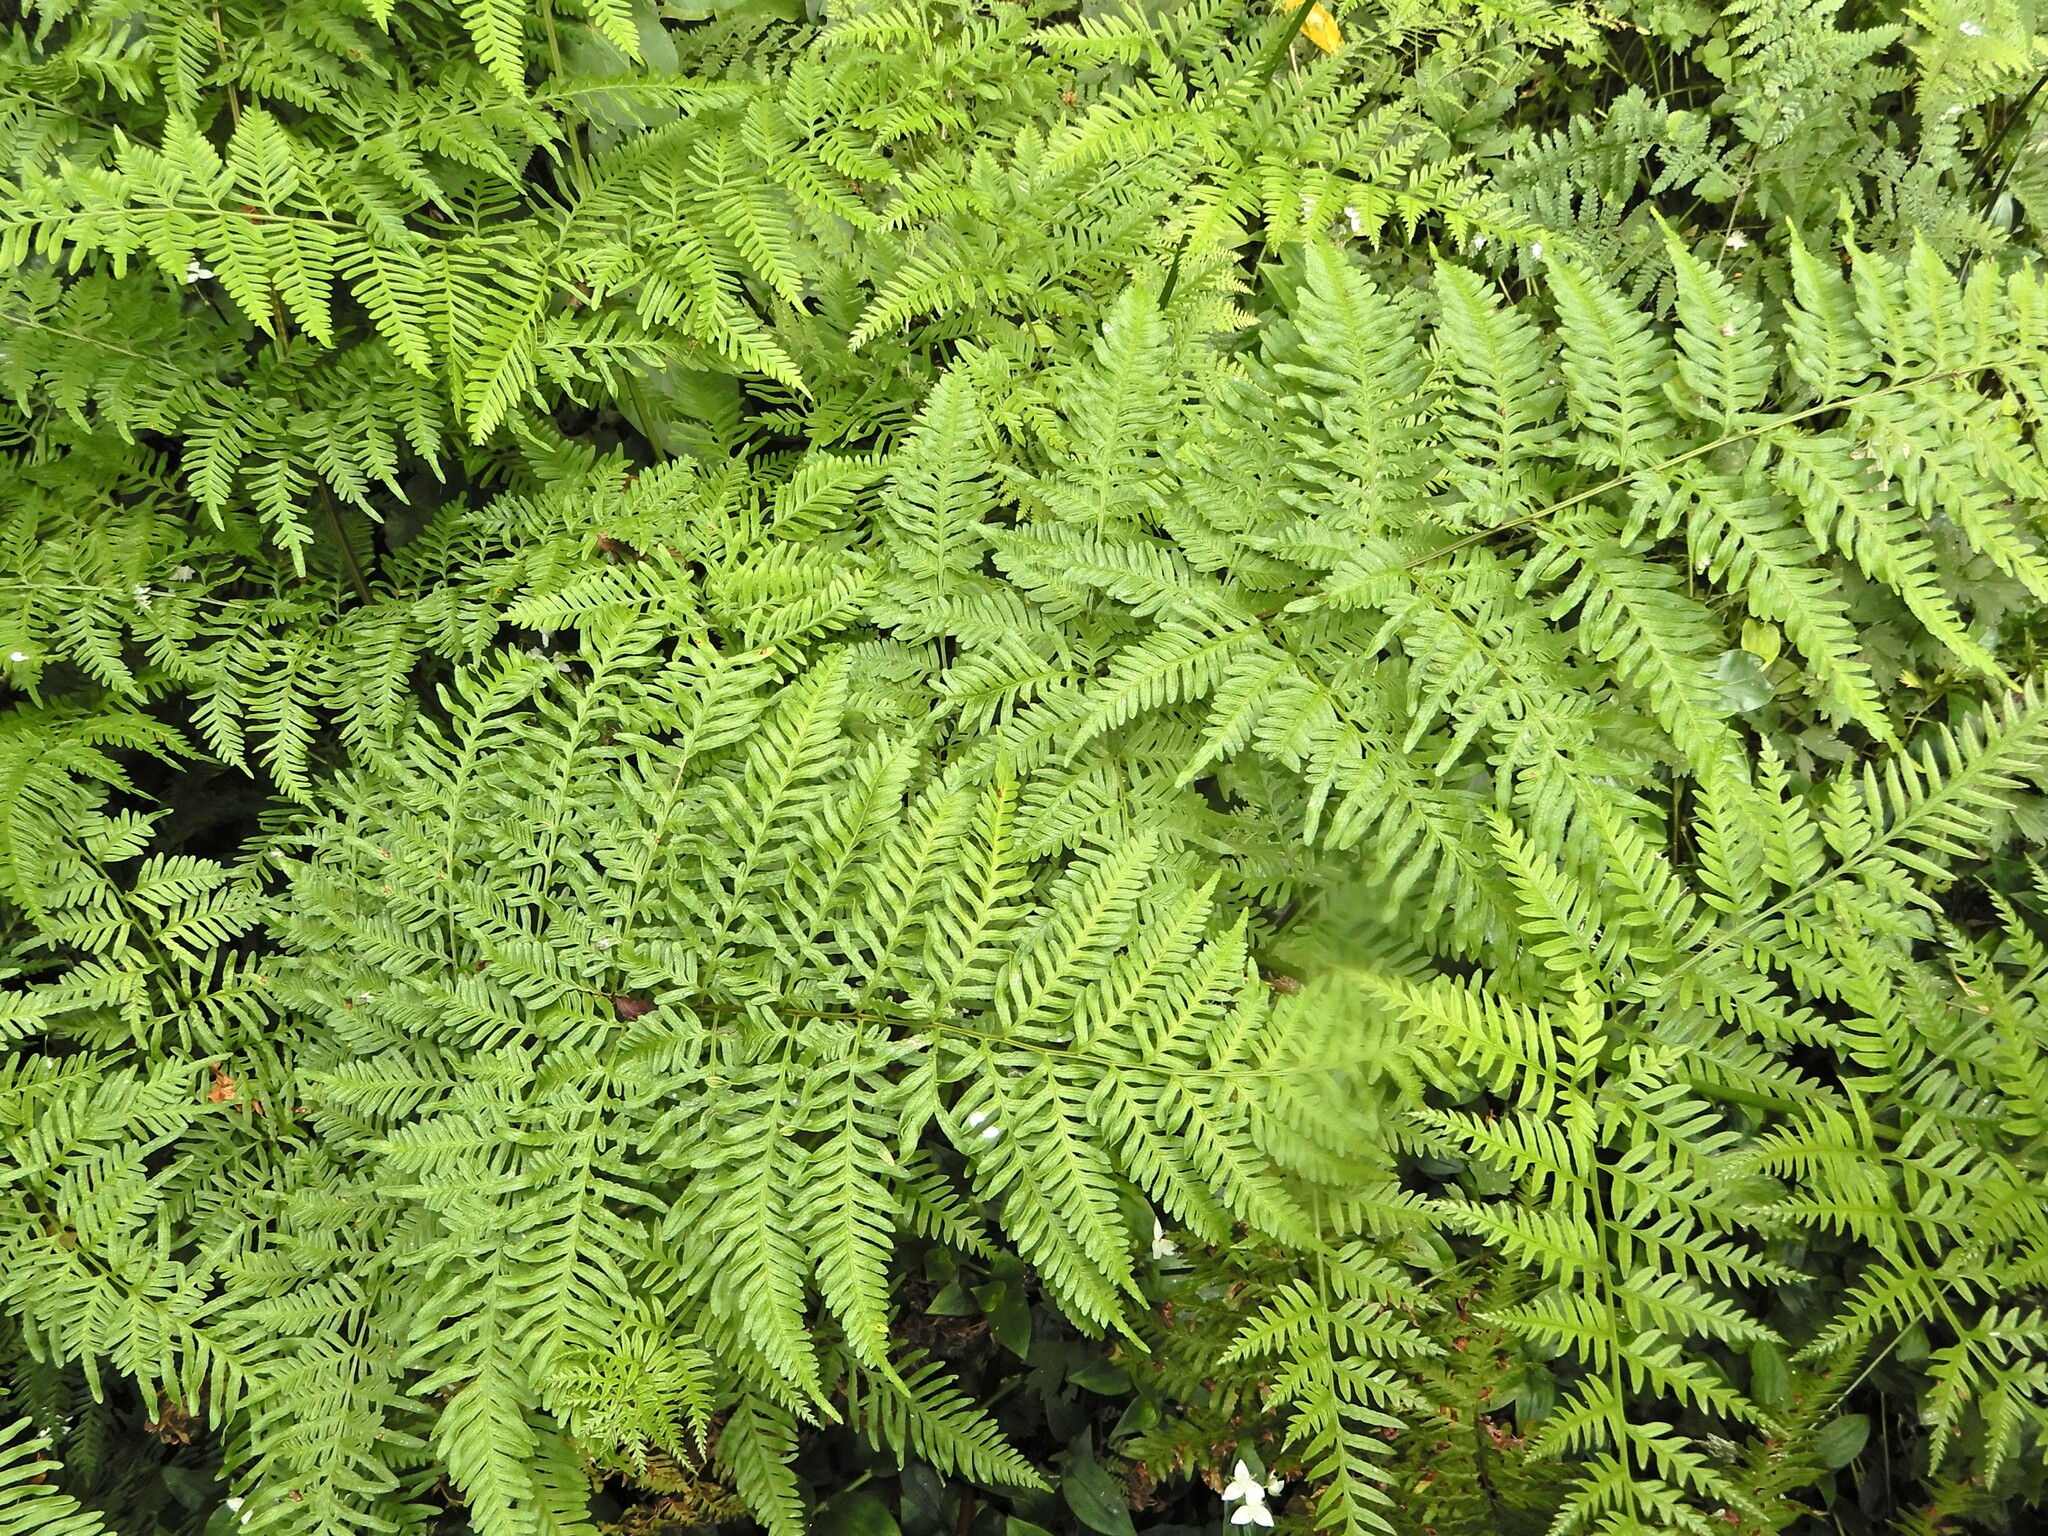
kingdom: Plantae
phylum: Tracheophyta
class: Polypodiopsida
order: Polypodiales
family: Pteridaceae
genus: Pteris
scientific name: Pteris tremula
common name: Australian brake
